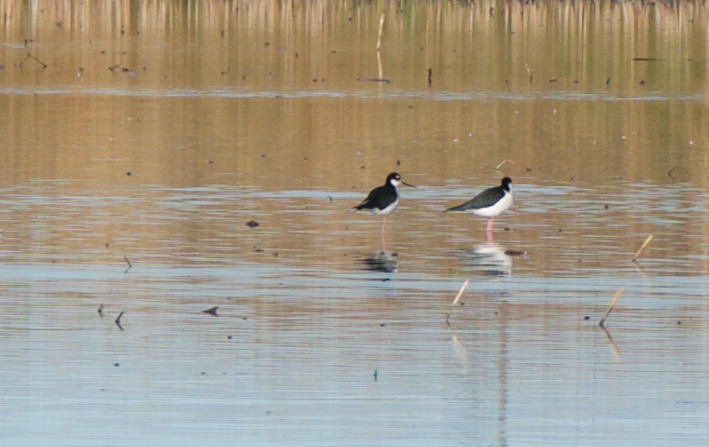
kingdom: Animalia
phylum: Chordata
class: Aves
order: Charadriiformes
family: Recurvirostridae
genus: Himantopus
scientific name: Himantopus mexicanus
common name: Black-necked stilt
